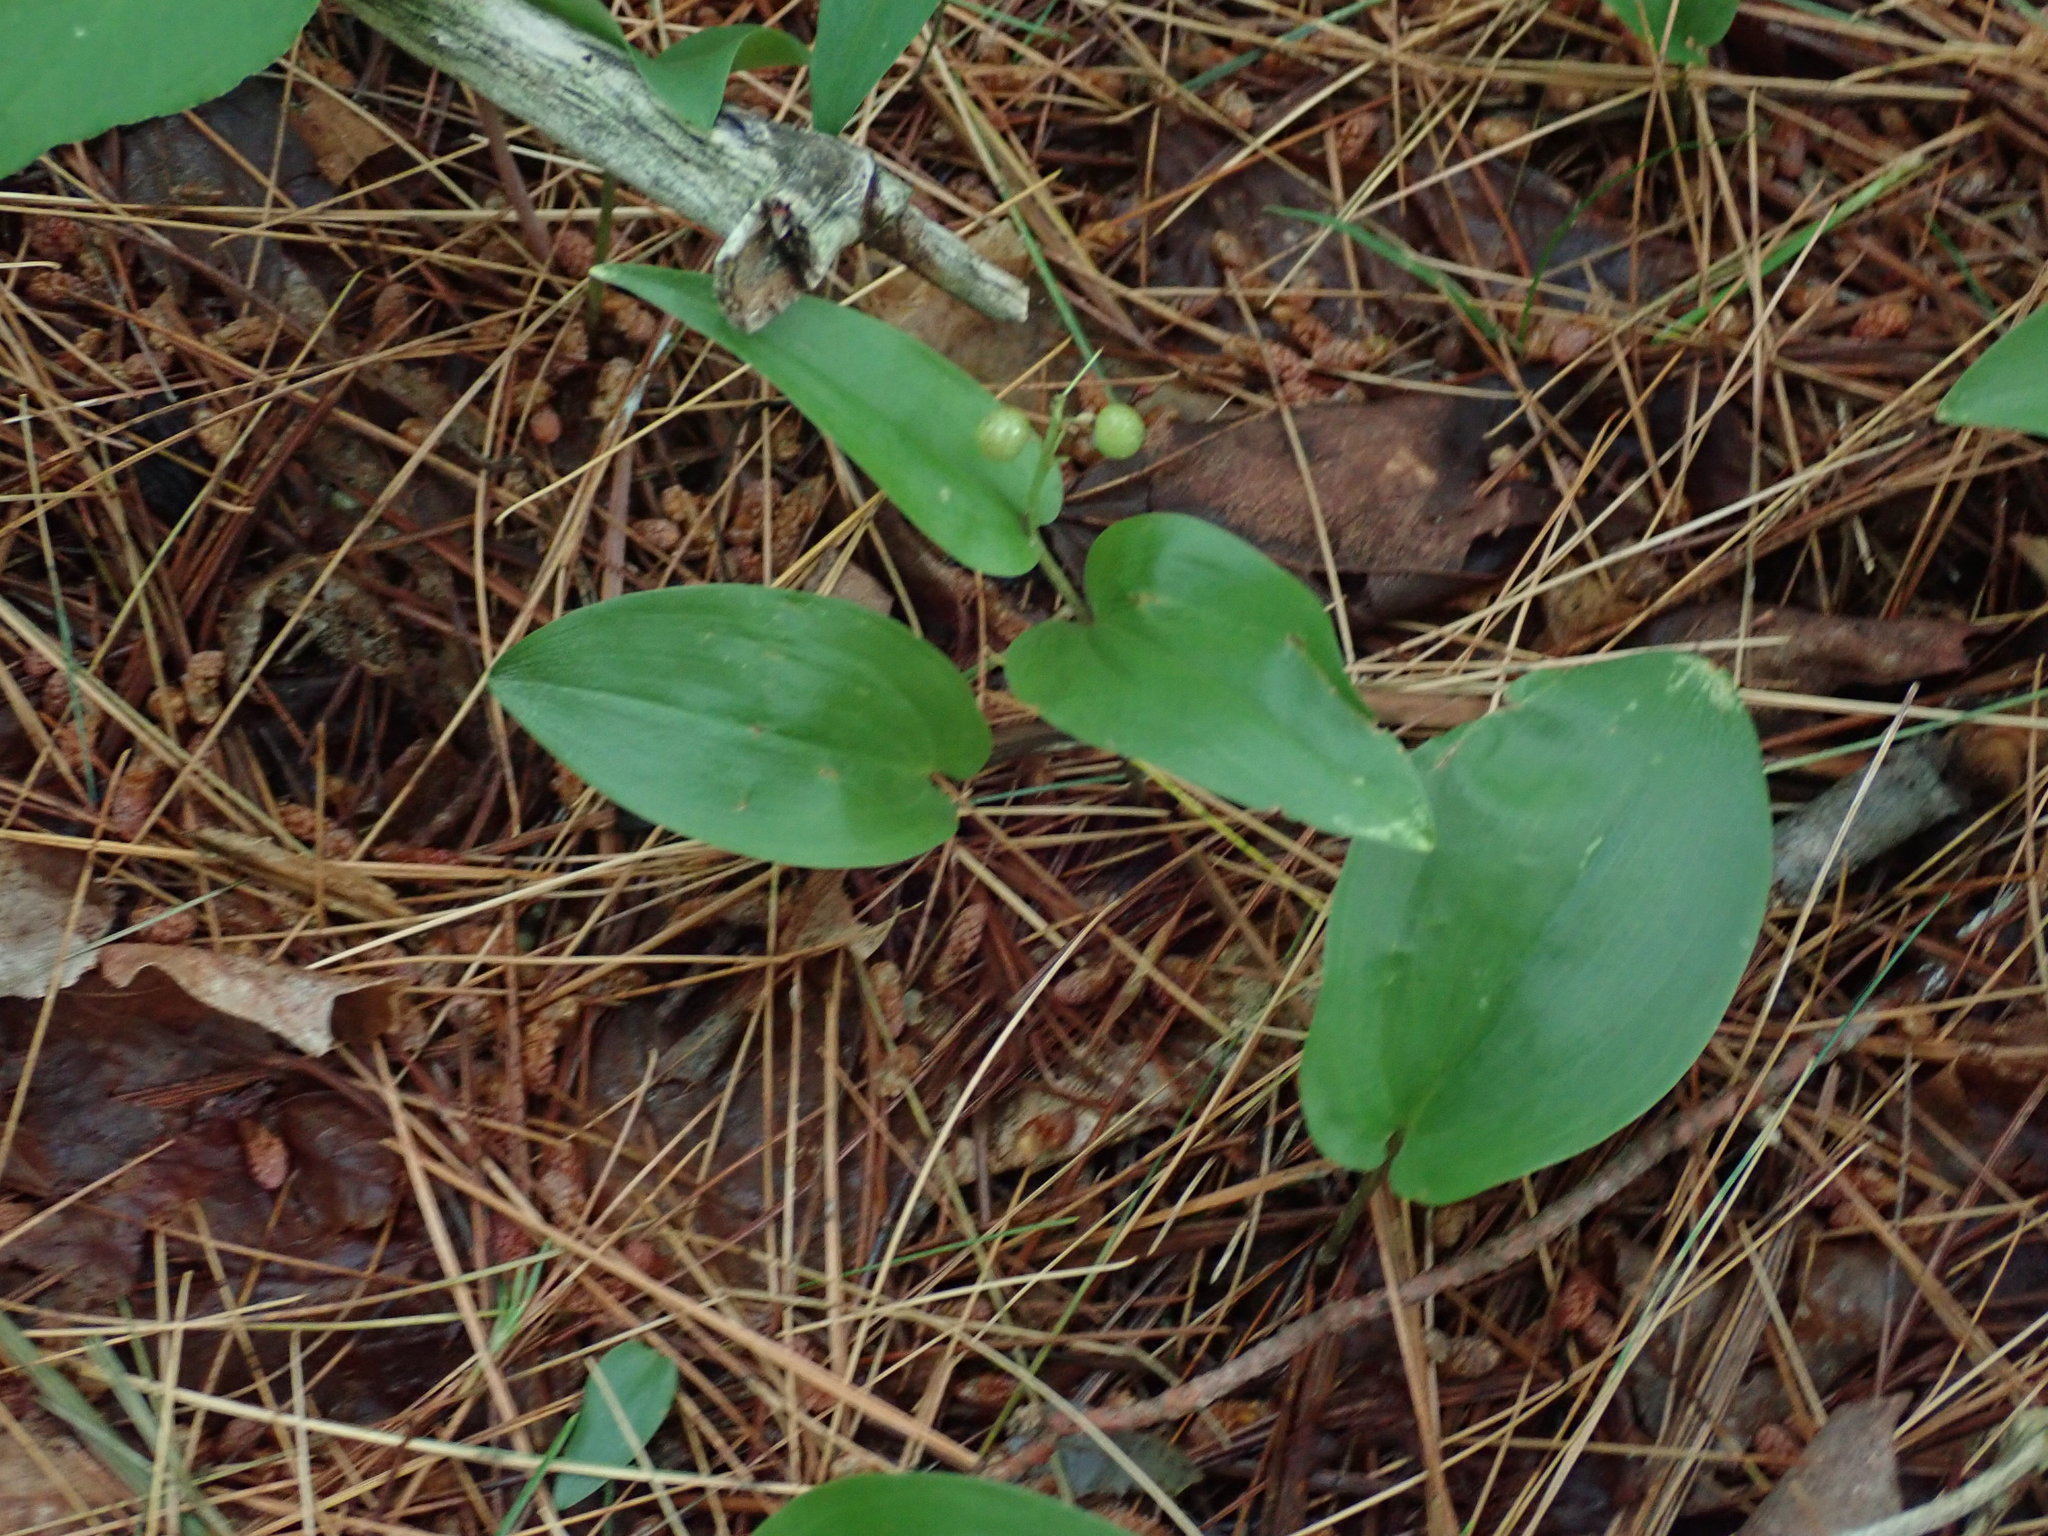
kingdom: Plantae
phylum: Tracheophyta
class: Liliopsida
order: Asparagales
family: Asparagaceae
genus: Maianthemum
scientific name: Maianthemum canadense
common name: False lily-of-the-valley
